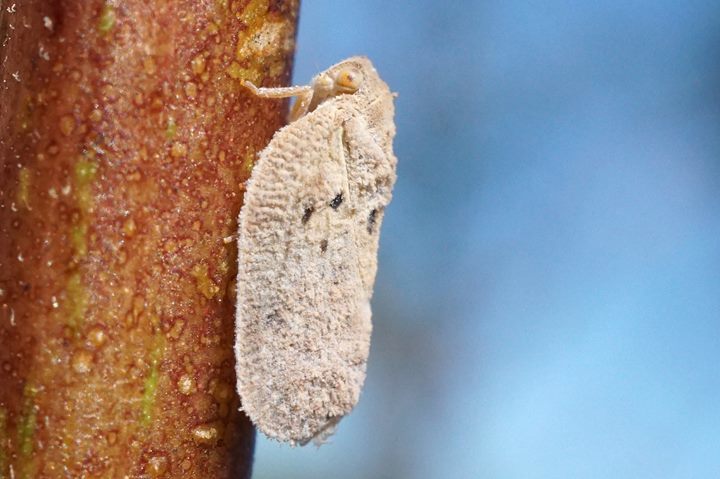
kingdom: Animalia
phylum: Arthropoda
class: Insecta
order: Hemiptera
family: Flatidae
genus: Melormenis
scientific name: Melormenis basalis
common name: Puerto rican planthopper
